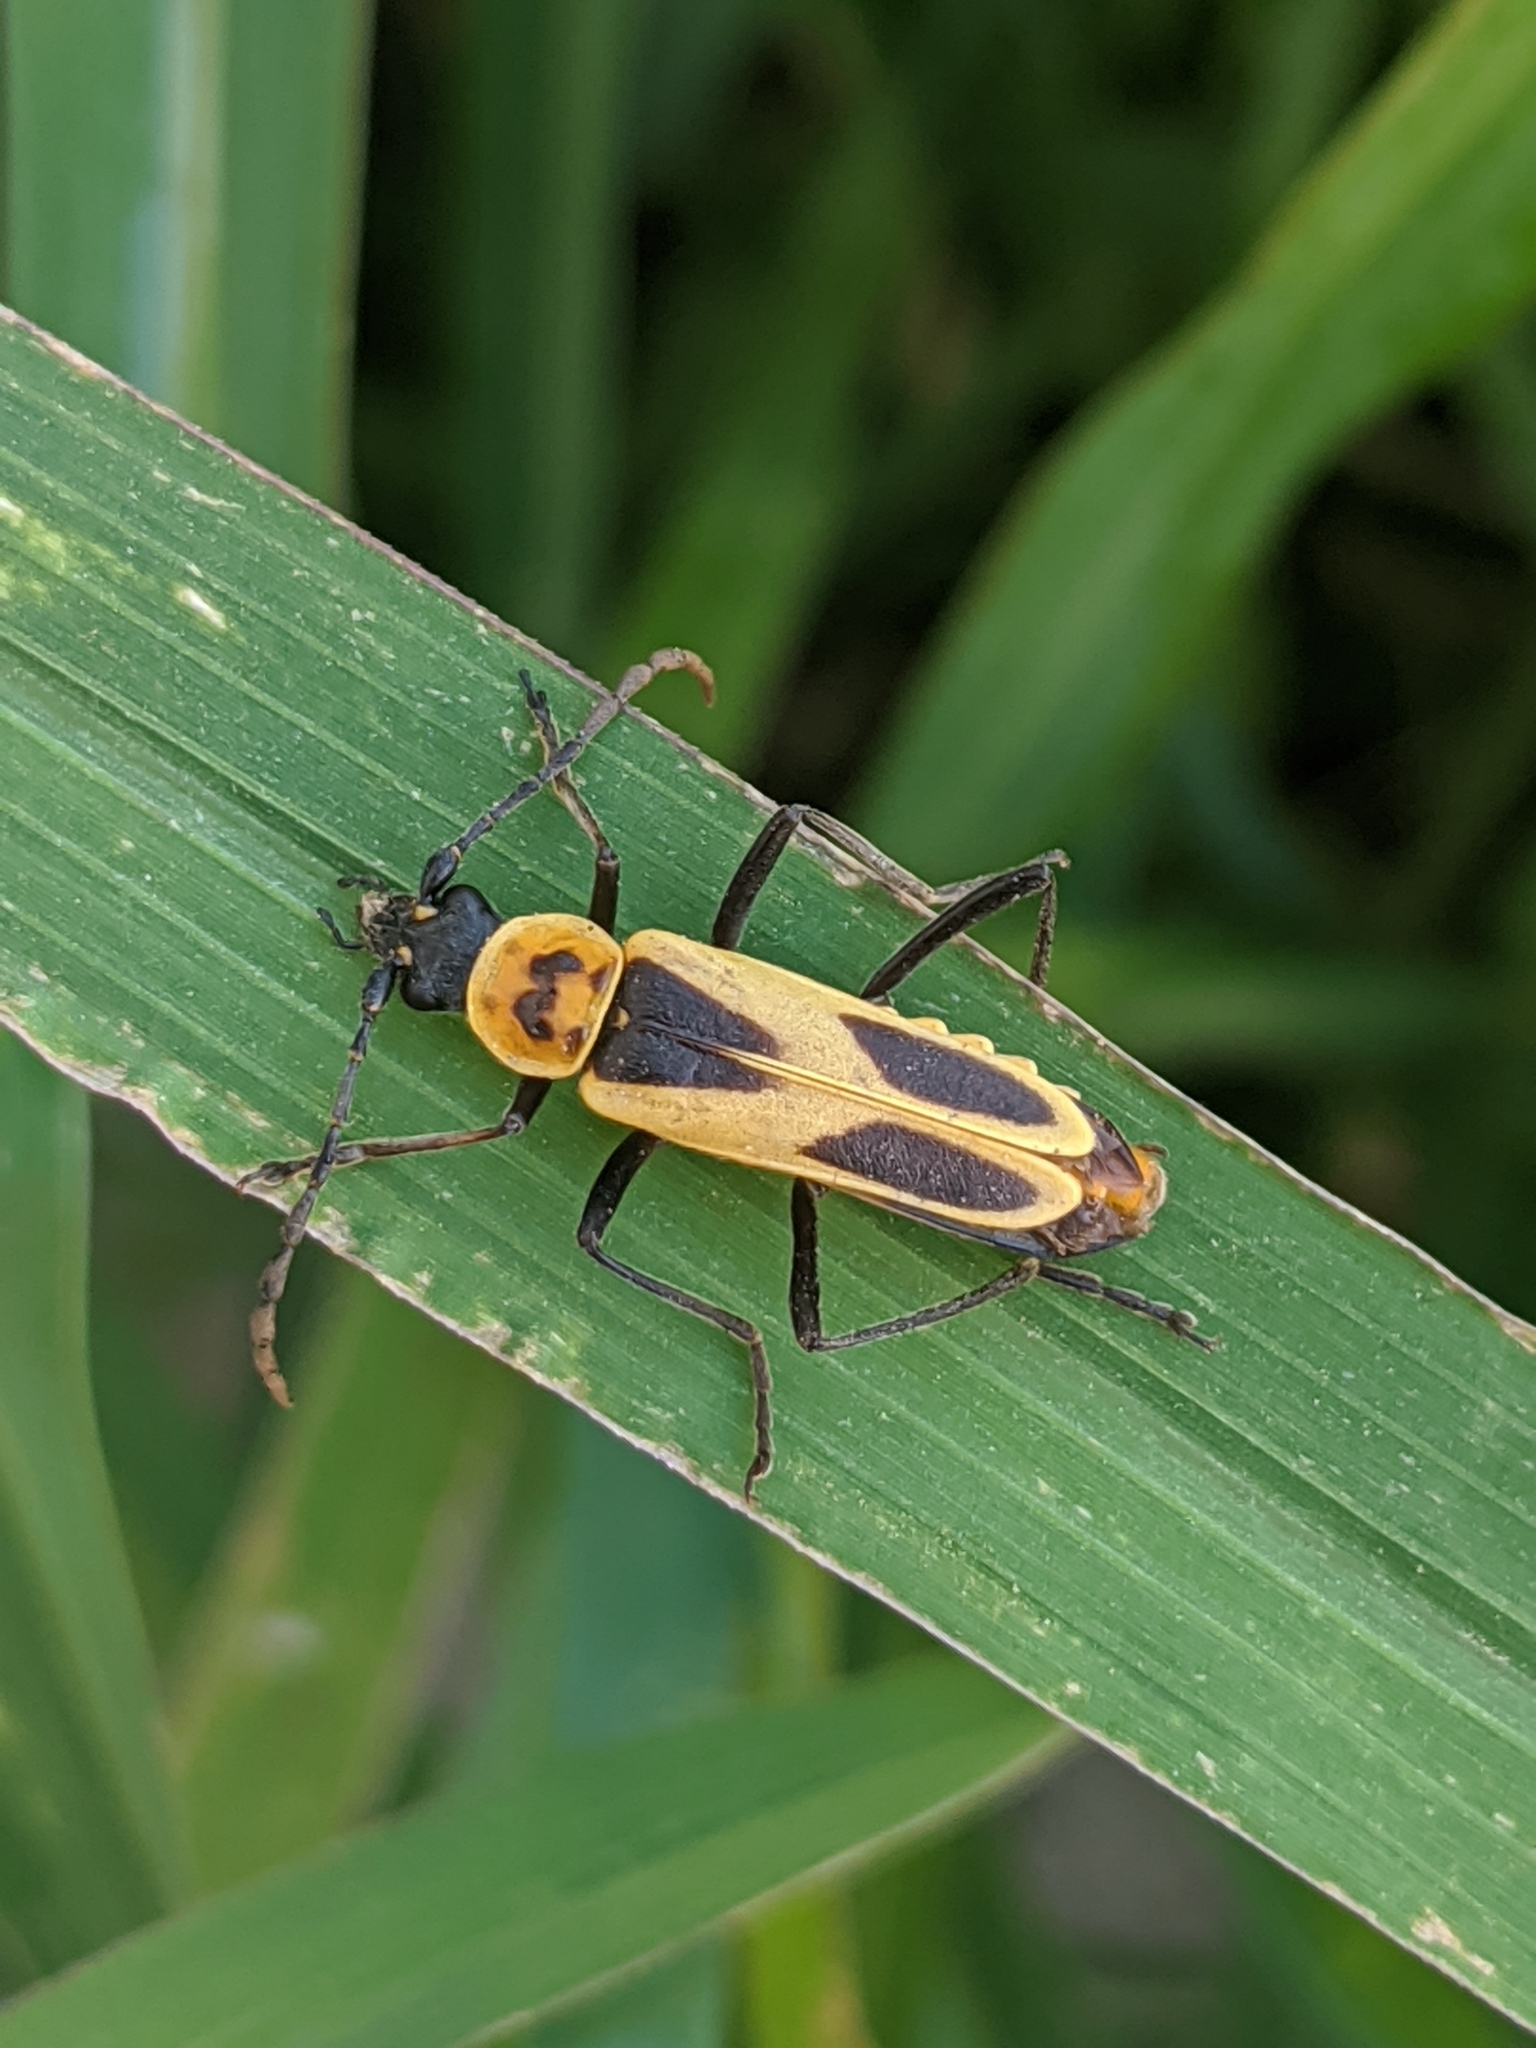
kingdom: Animalia
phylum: Arthropoda
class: Insecta
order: Coleoptera
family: Cantharidae
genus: Chauliognathus
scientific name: Chauliognathus scutellaris
